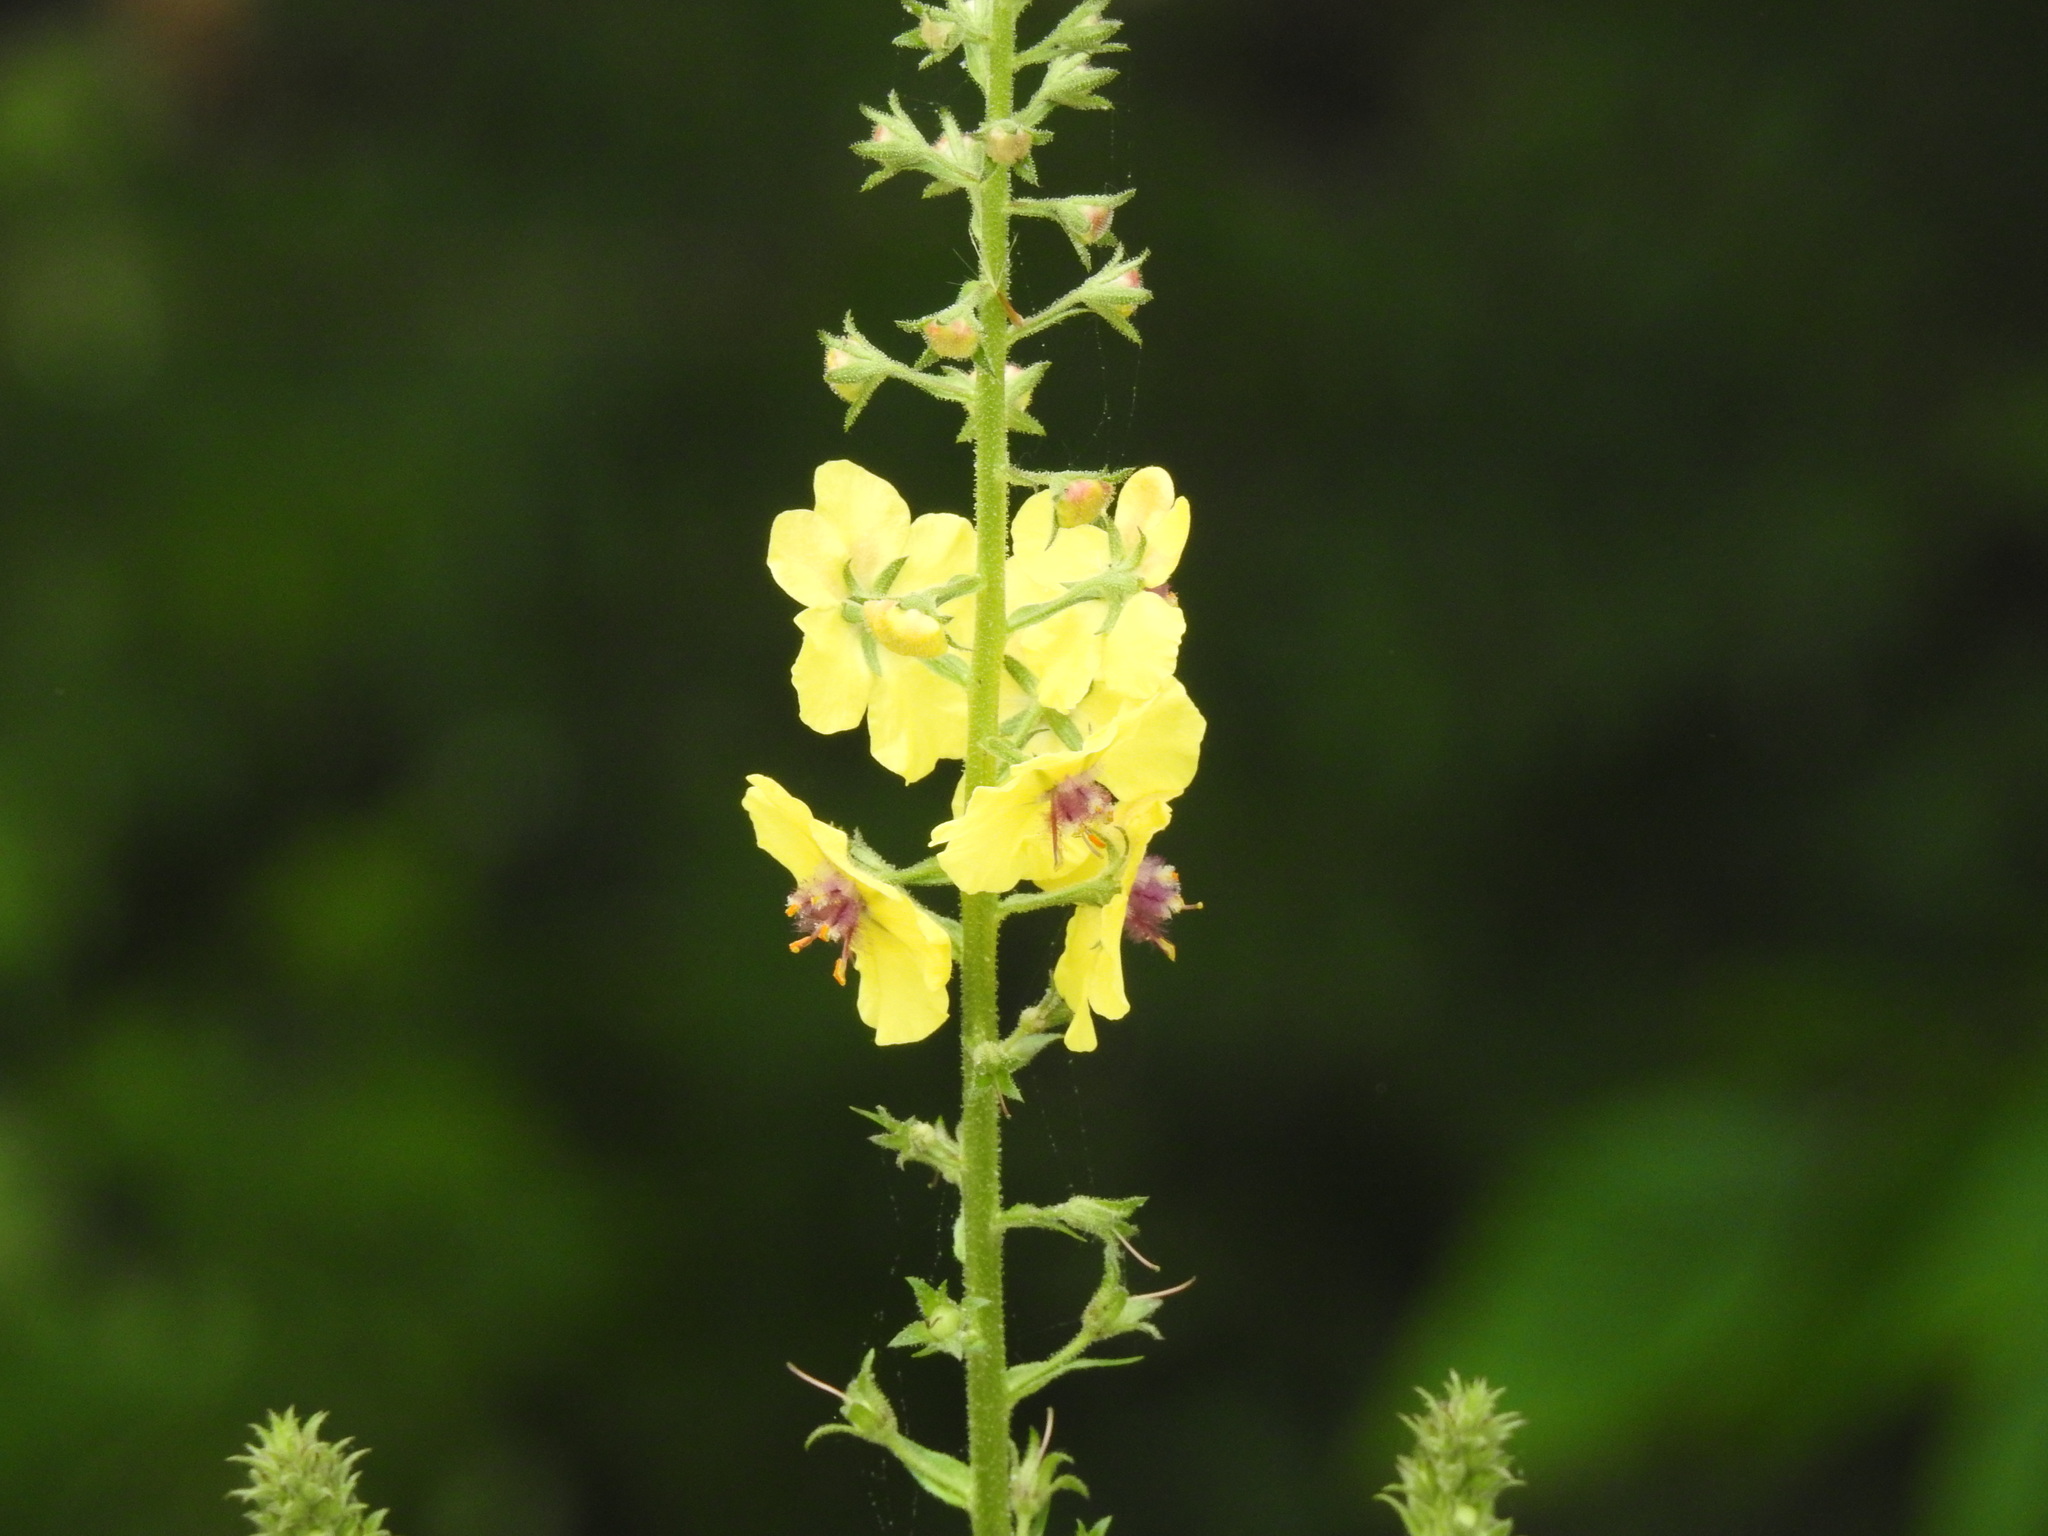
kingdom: Plantae
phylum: Tracheophyta
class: Magnoliopsida
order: Lamiales
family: Scrophulariaceae
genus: Verbascum
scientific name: Verbascum blattaria
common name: Moth mullein
